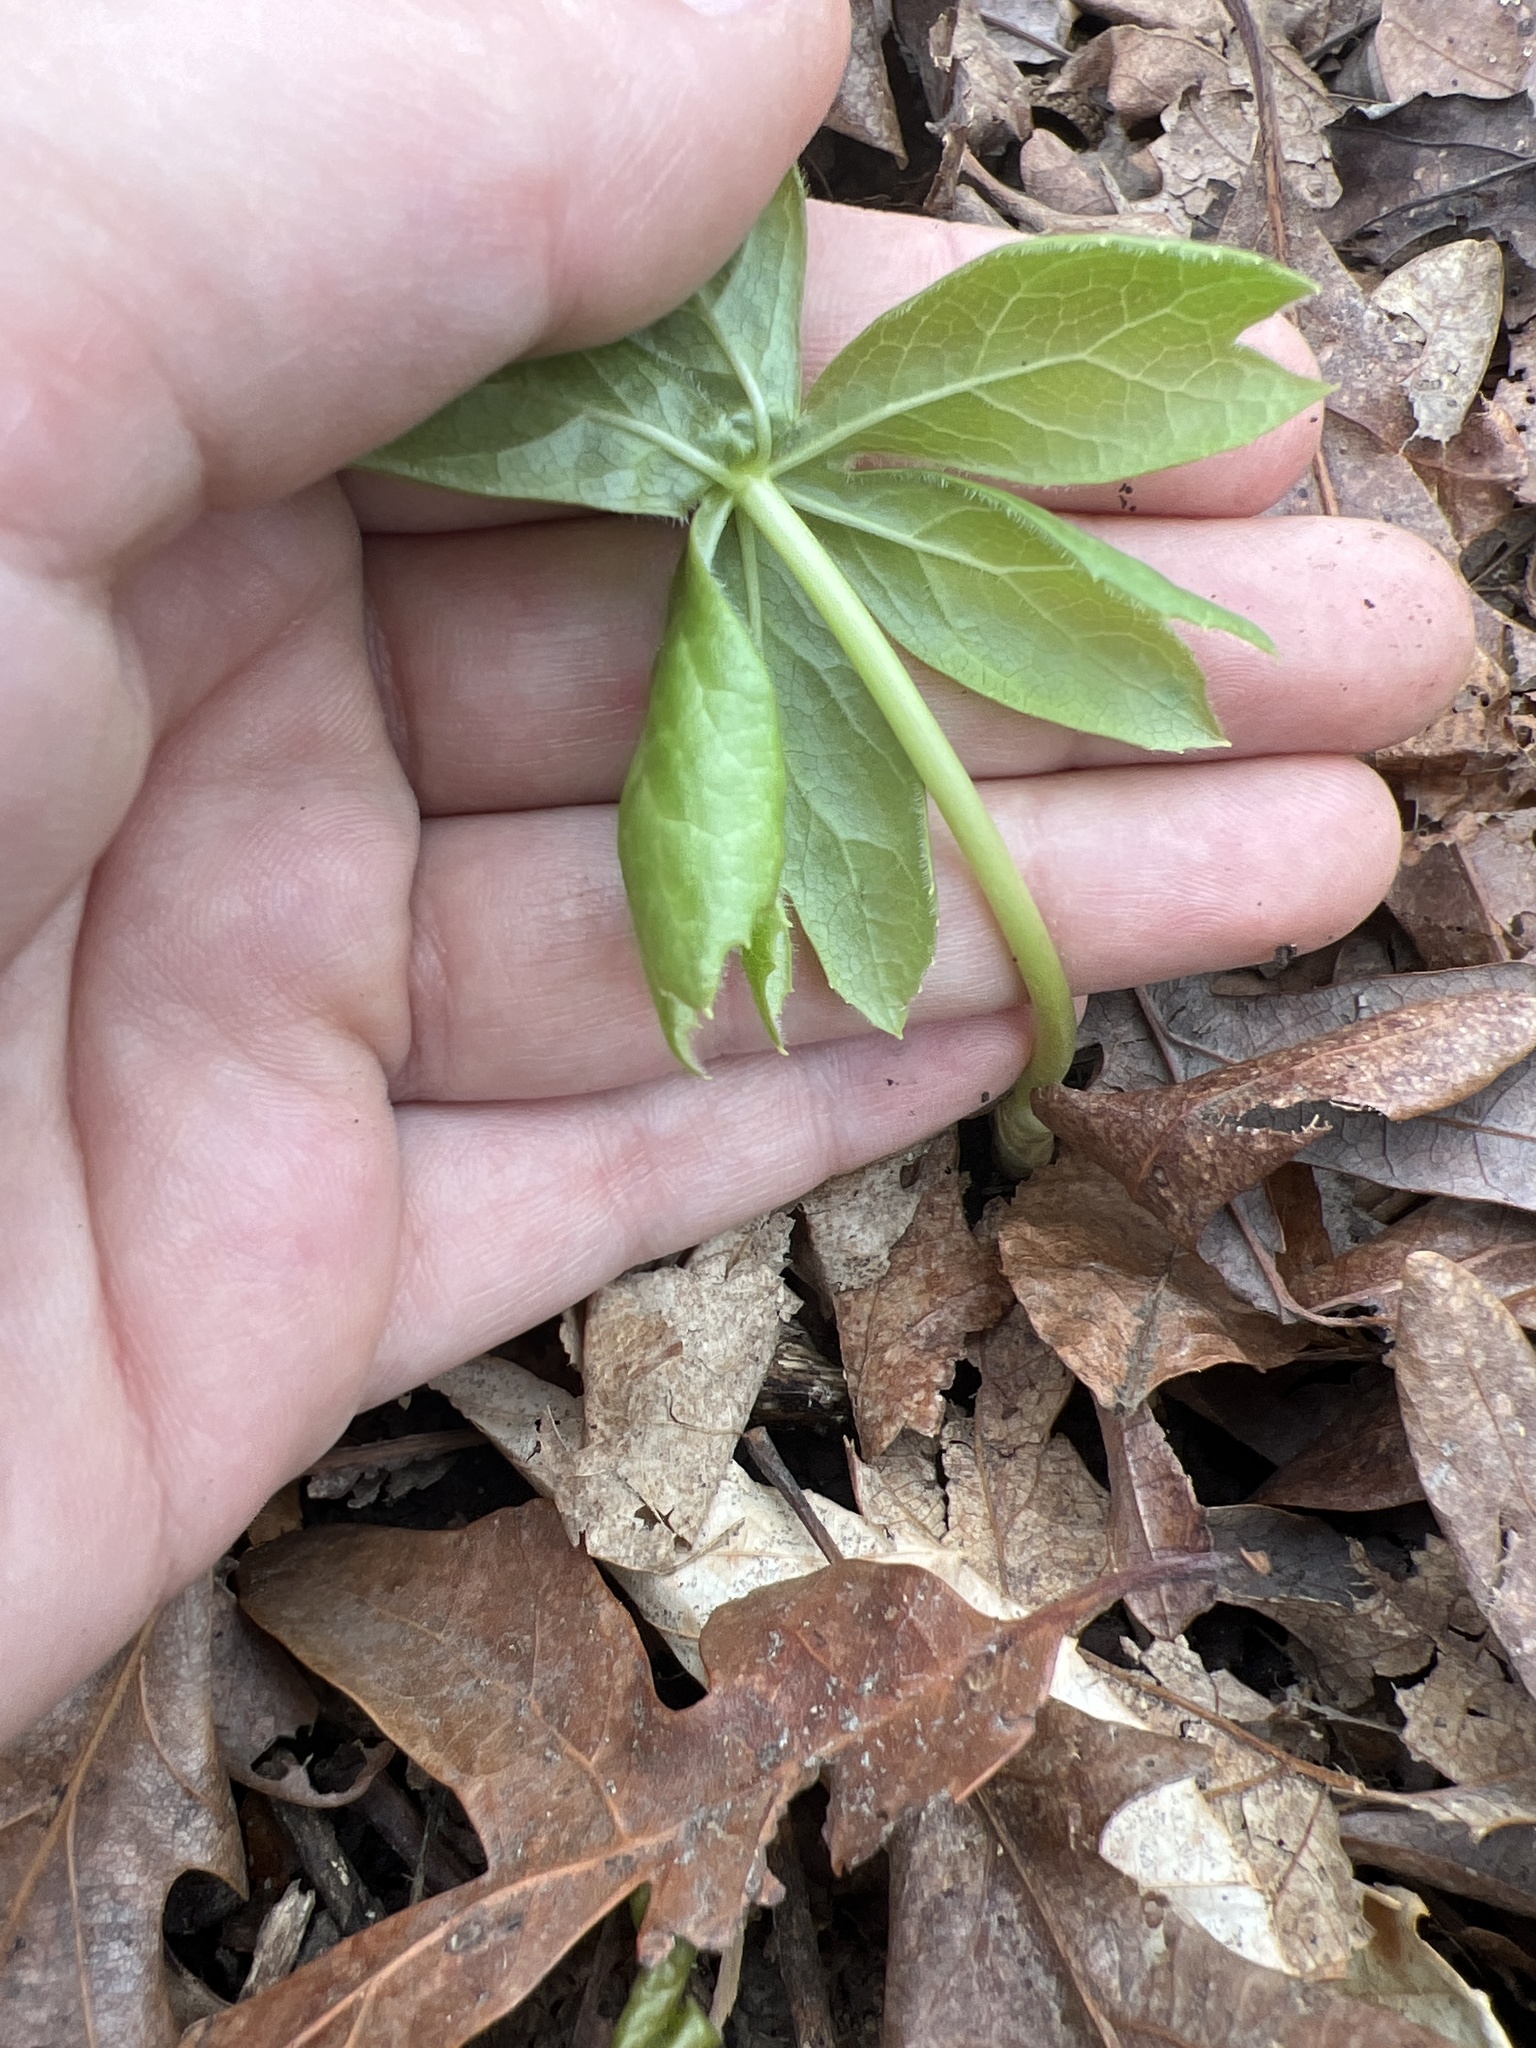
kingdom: Plantae
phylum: Tracheophyta
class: Magnoliopsida
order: Ranunculales
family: Berberidaceae
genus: Podophyllum
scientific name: Podophyllum peltatum
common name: Wild mandrake
